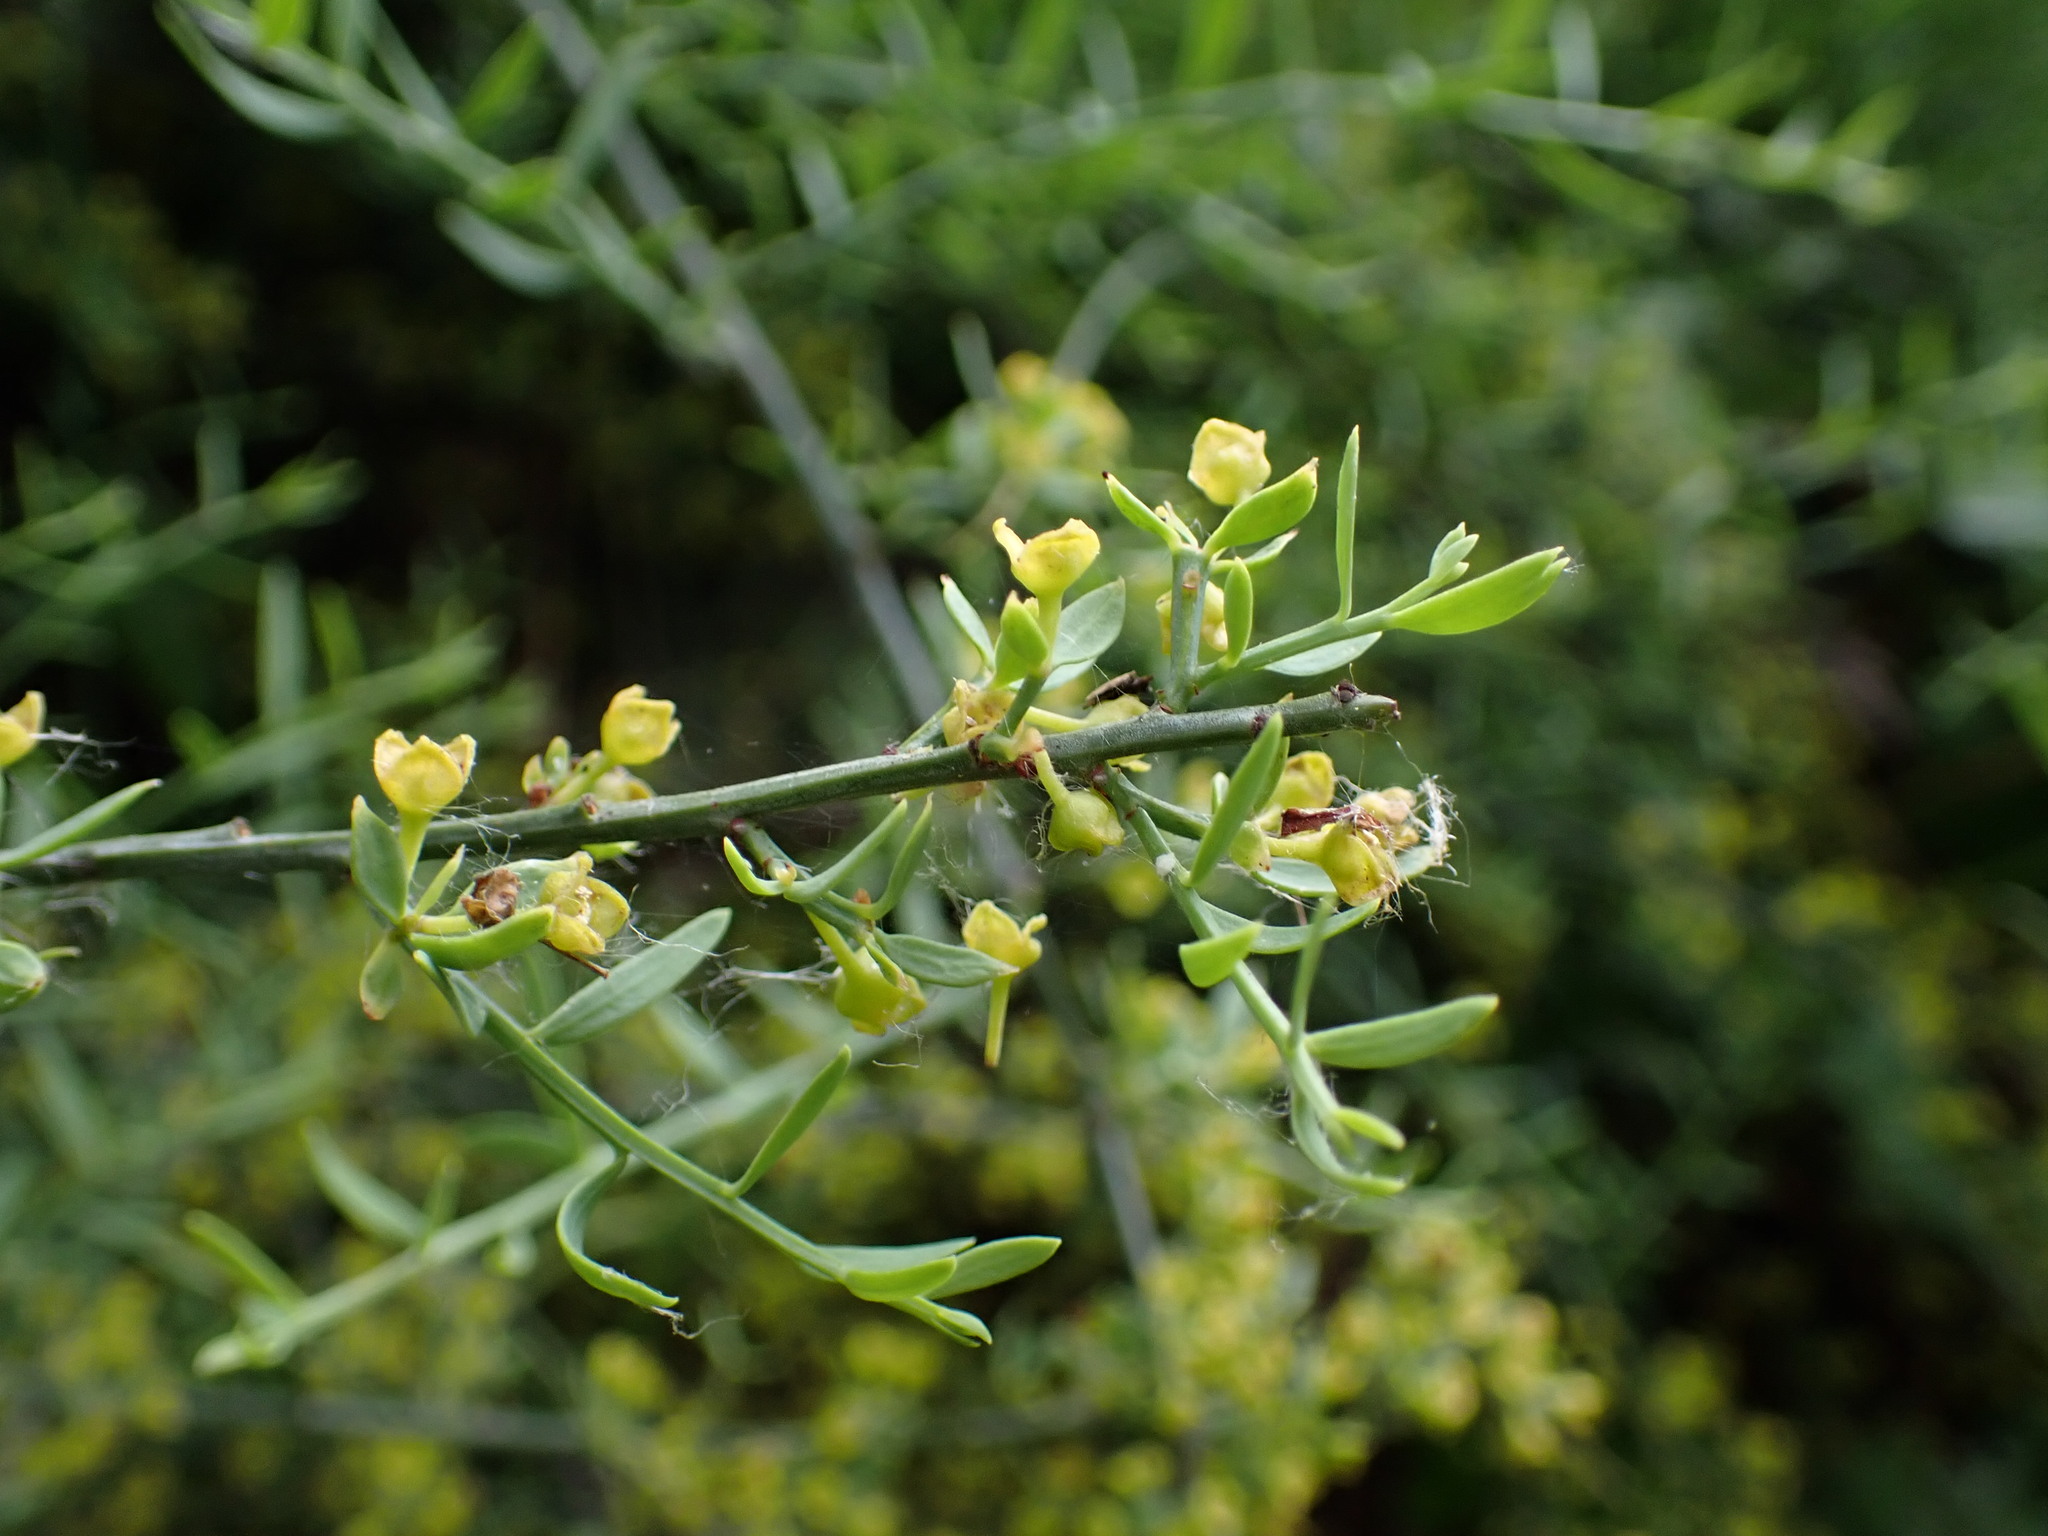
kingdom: Plantae
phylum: Tracheophyta
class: Magnoliopsida
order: Santalales
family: Santalaceae
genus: Osyris
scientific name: Osyris alba
